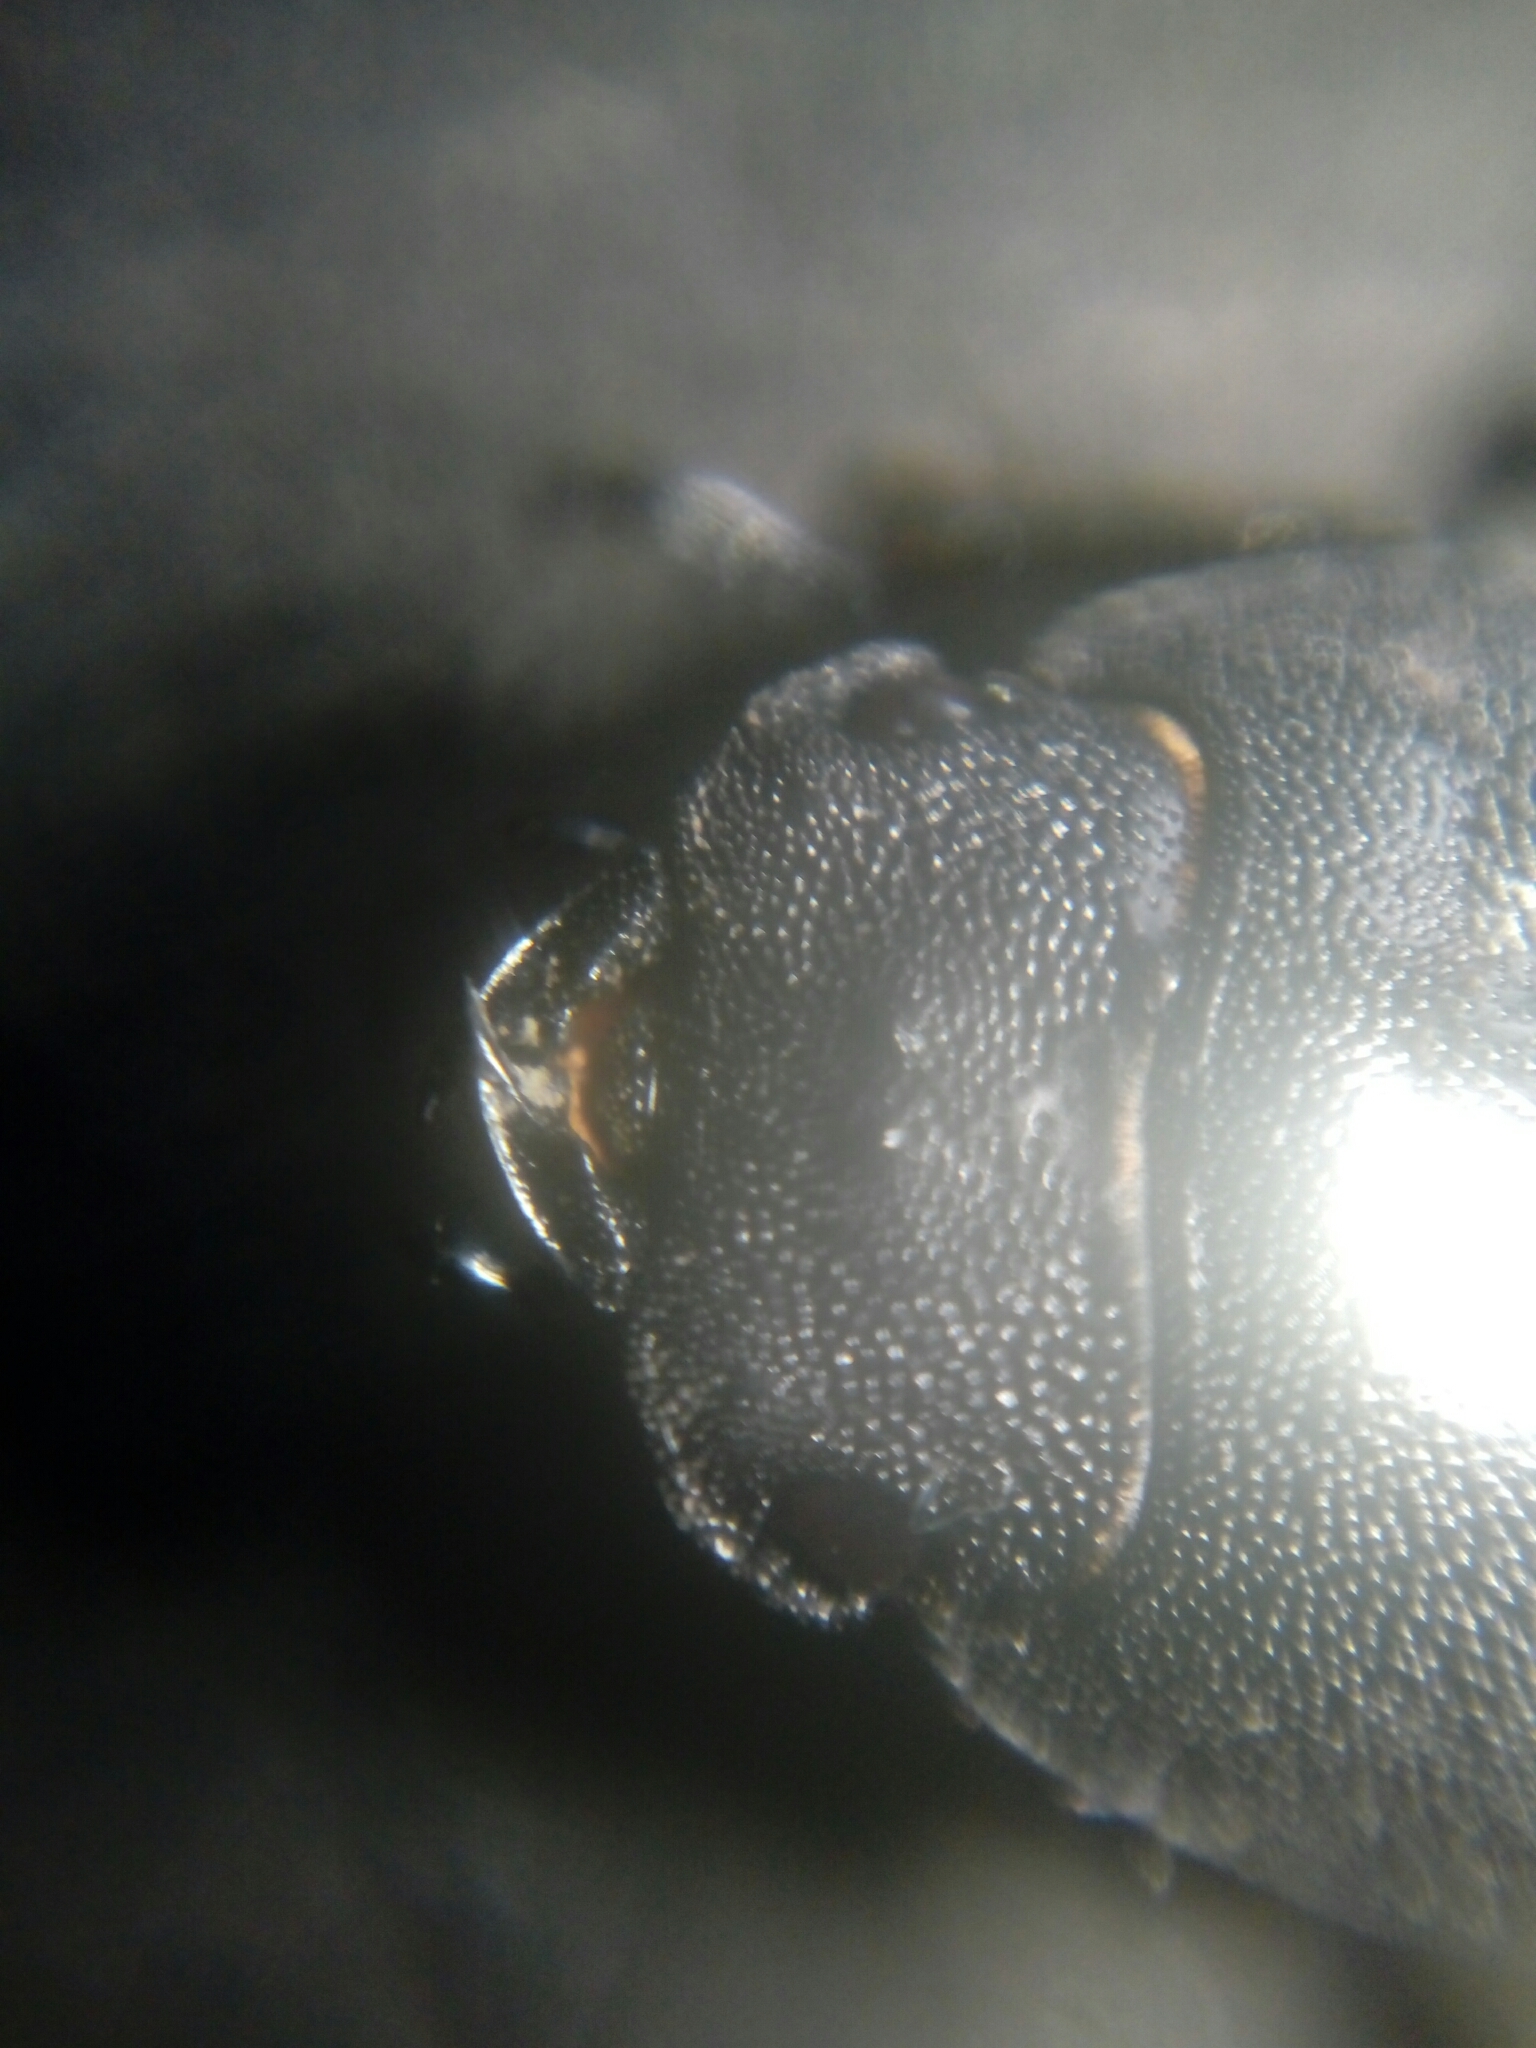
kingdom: Animalia
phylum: Arthropoda
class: Insecta
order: Coleoptera
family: Lucanidae
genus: Dorcus
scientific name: Dorcus parallelipipedus
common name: Lesser stag beetle
